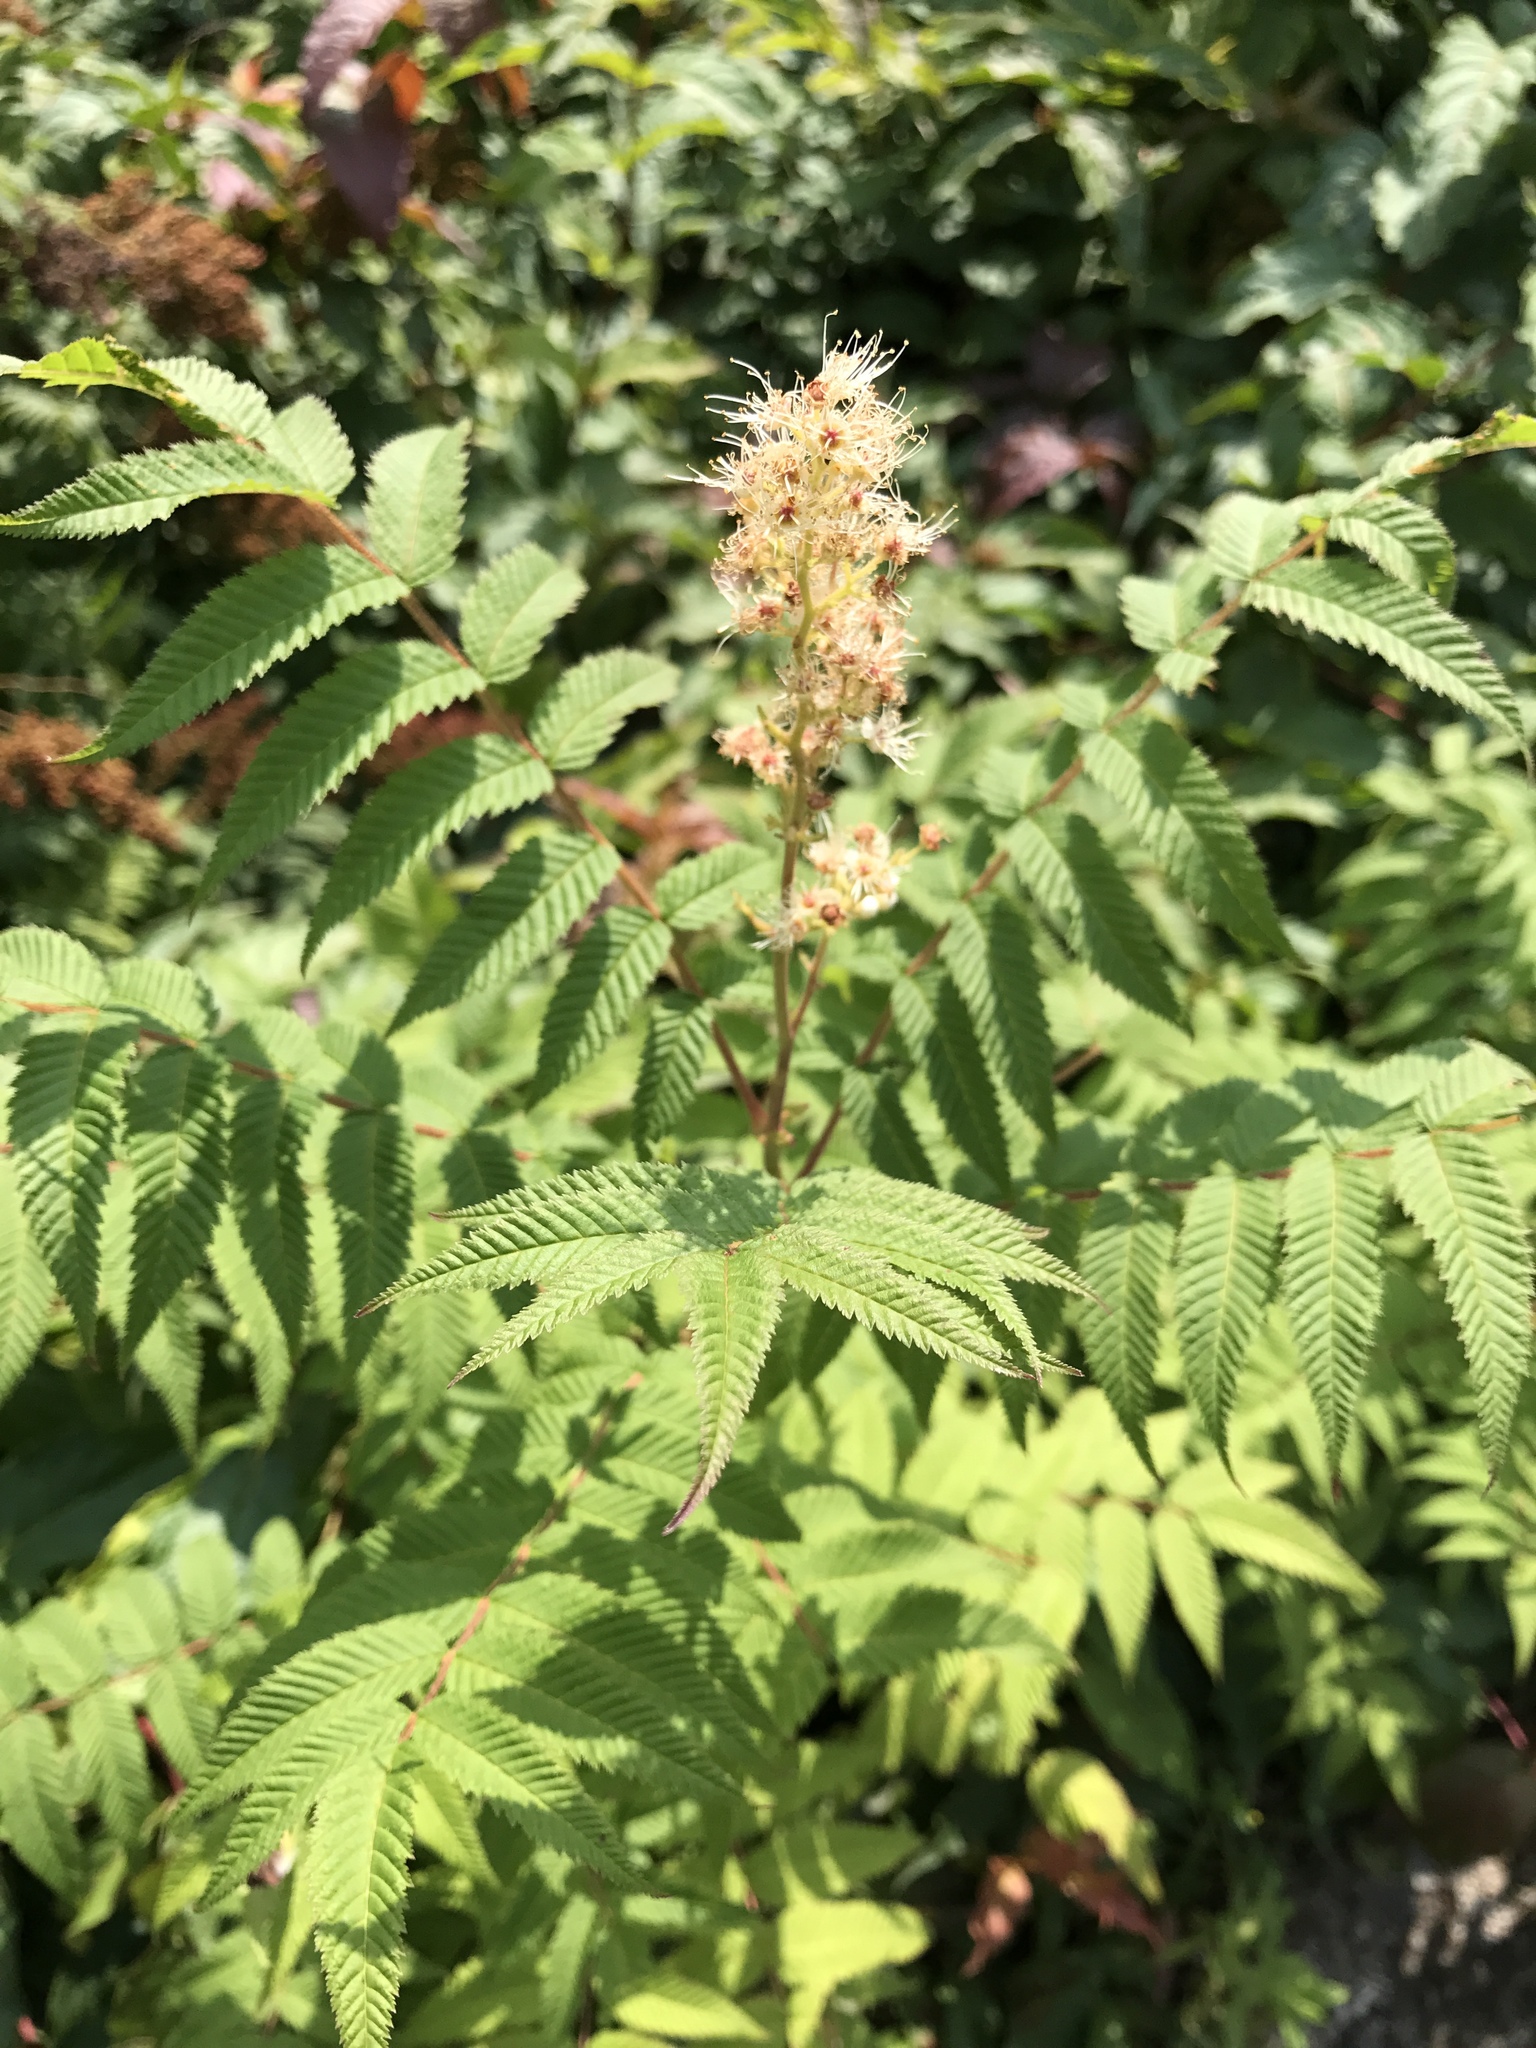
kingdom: Plantae
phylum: Tracheophyta
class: Magnoliopsida
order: Rosales
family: Rosaceae
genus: Sorbaria
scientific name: Sorbaria sorbifolia
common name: False spiraea
